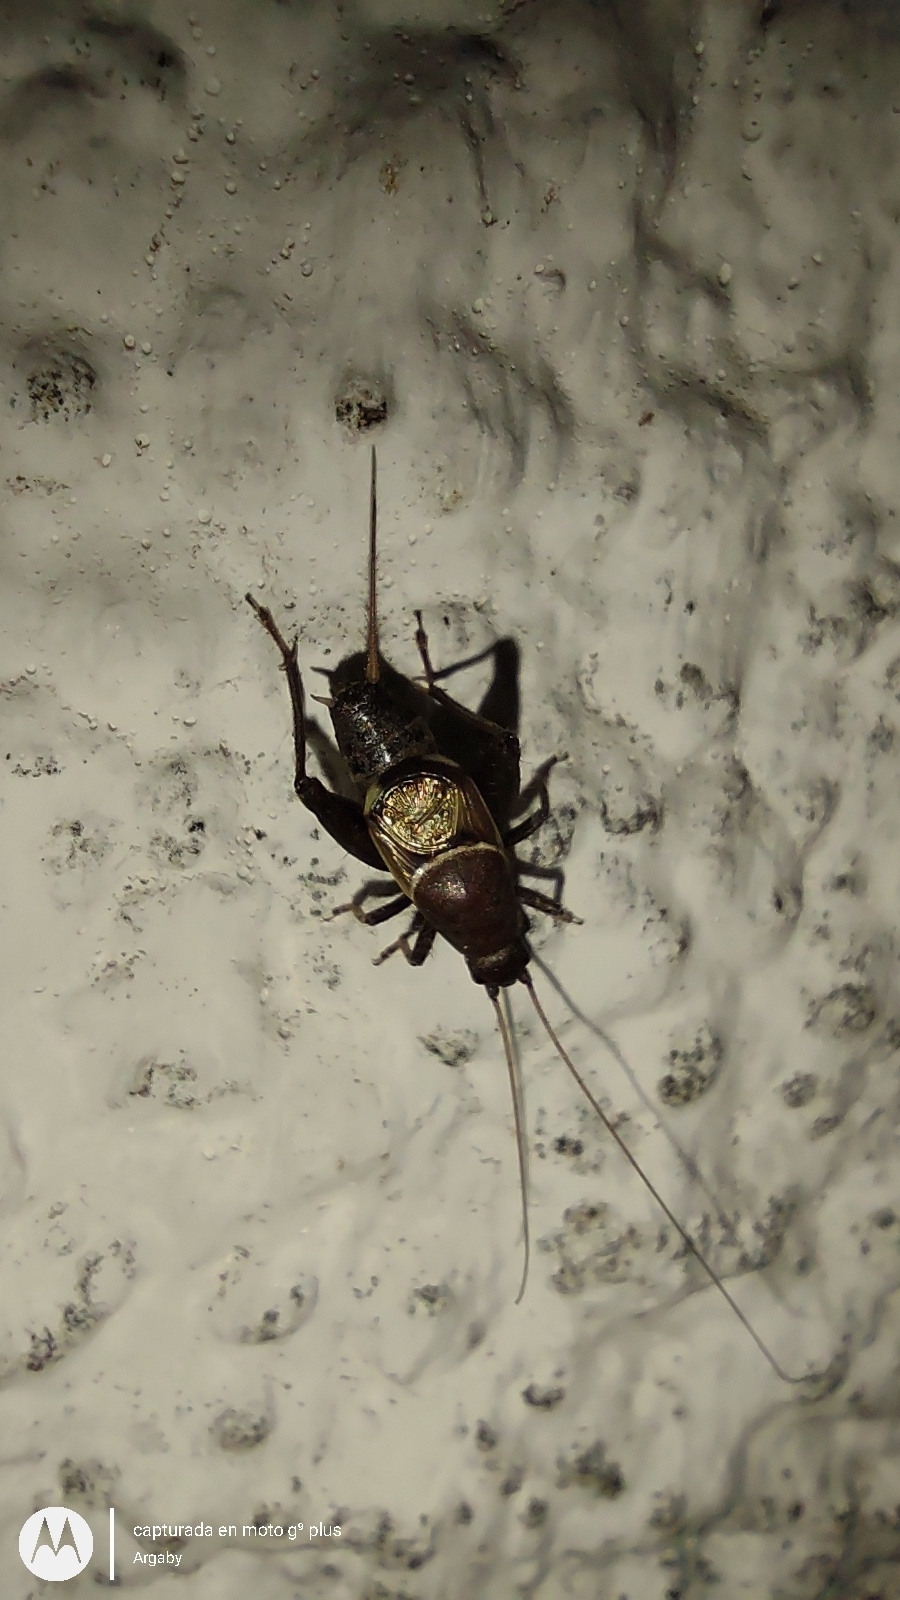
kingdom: Animalia
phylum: Arthropoda
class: Insecta
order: Orthoptera
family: Mogoplistidae
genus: Ornebius
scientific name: Ornebius alatus
